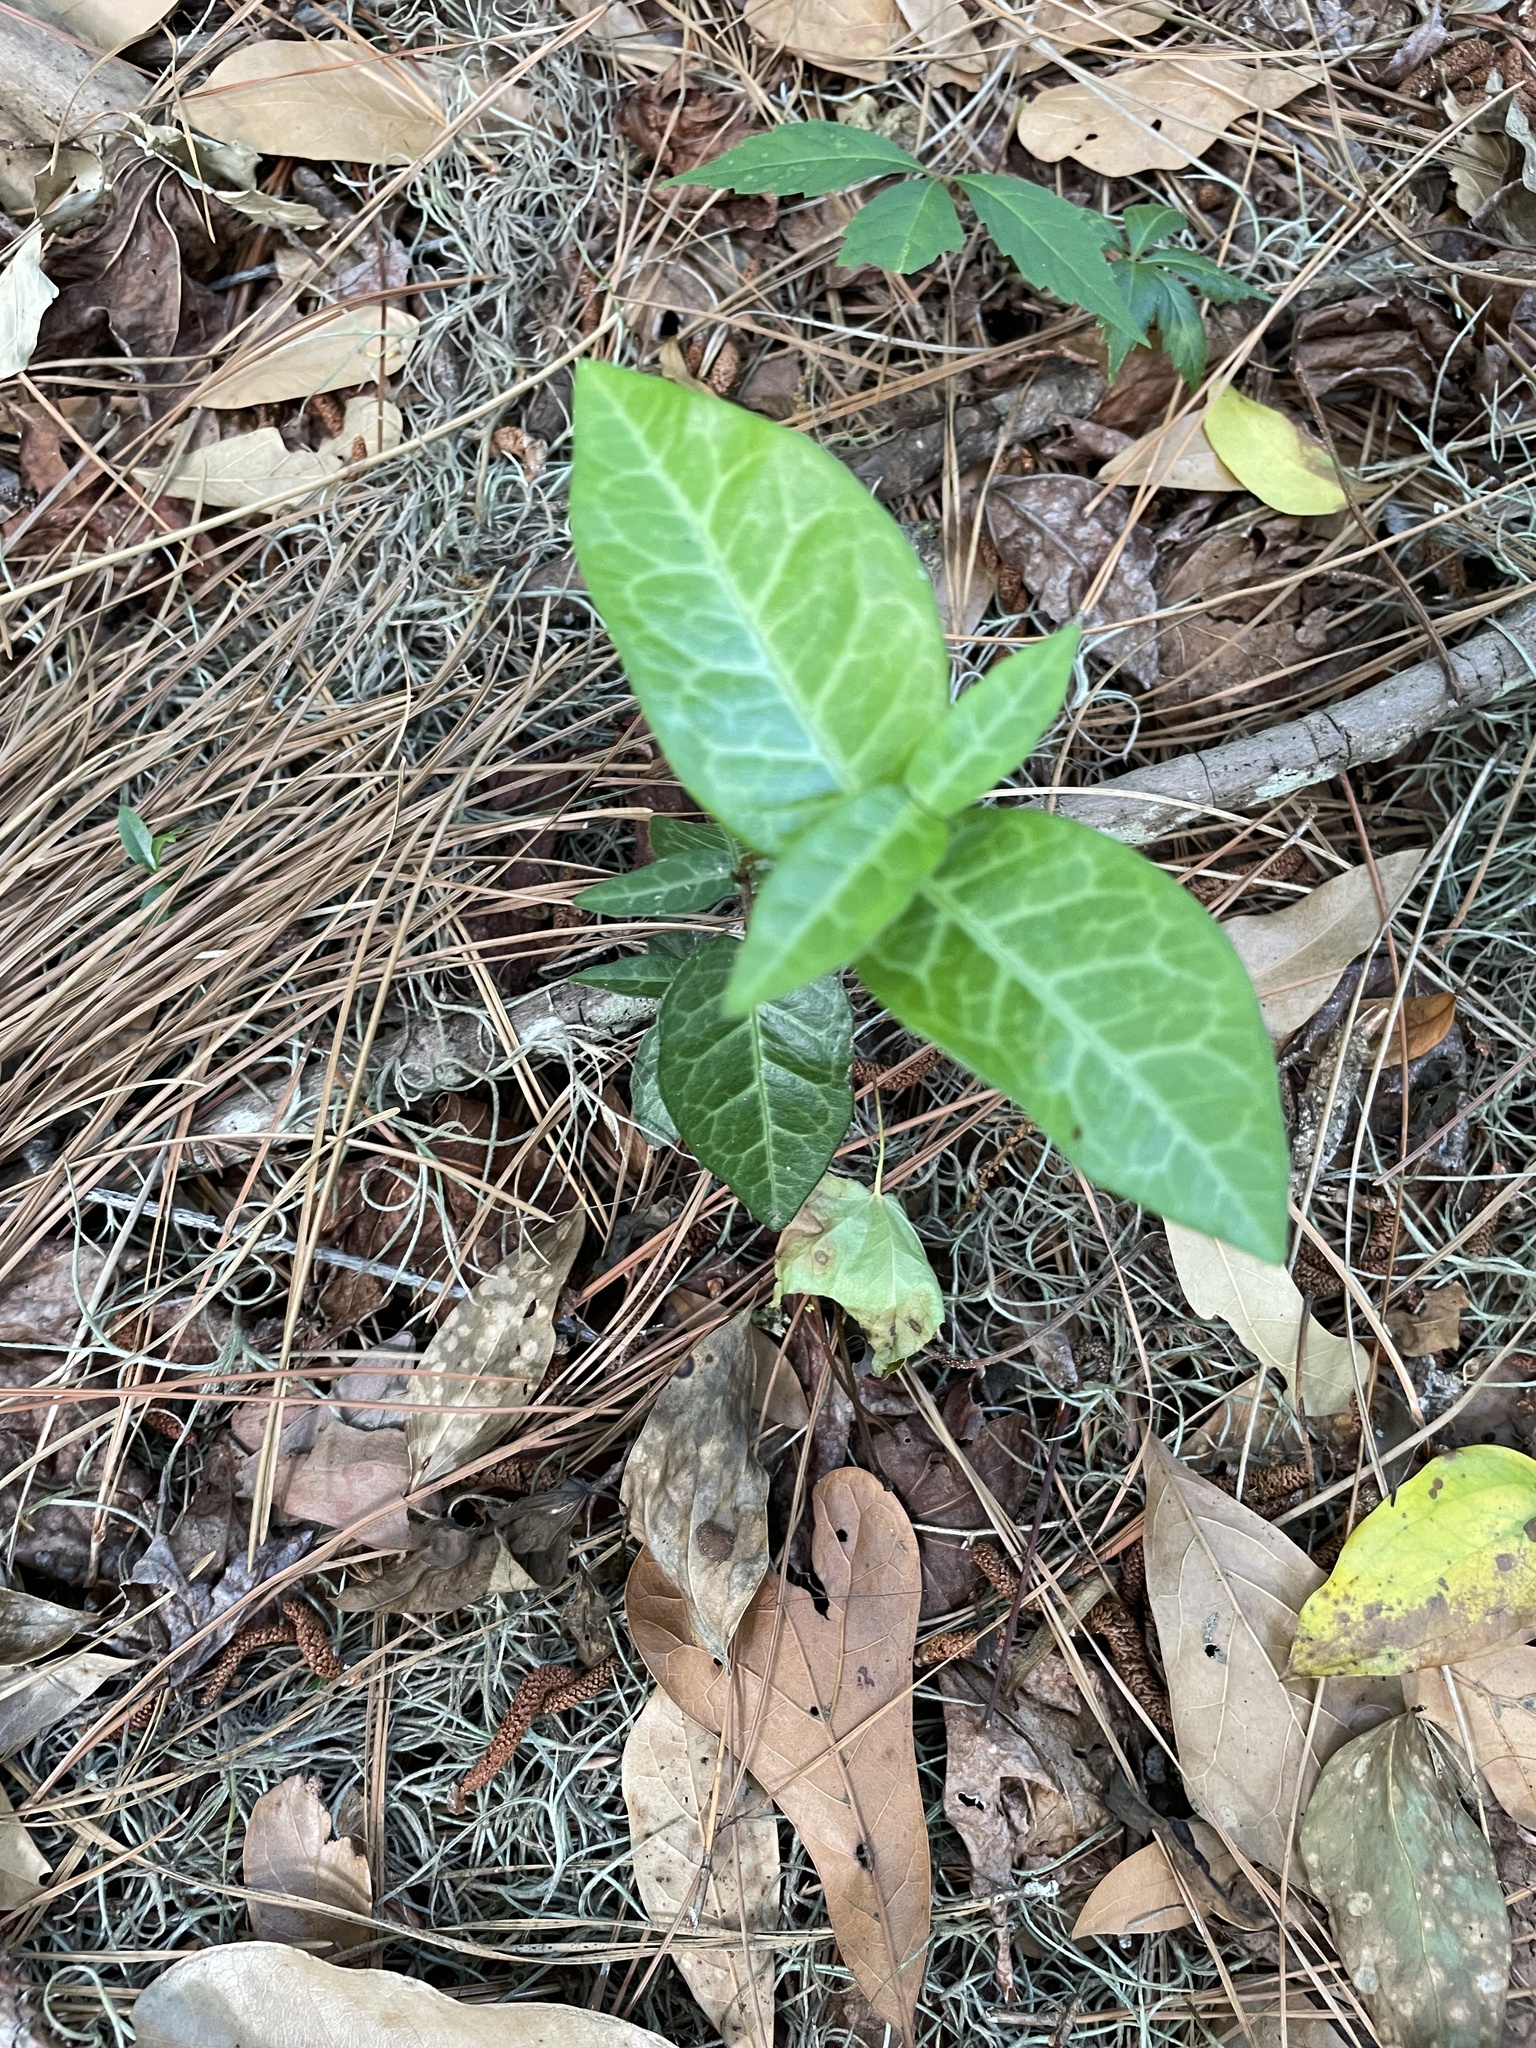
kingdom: Plantae
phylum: Tracheophyta
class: Magnoliopsida
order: Gentianales
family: Apocynaceae
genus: Trachelospermum
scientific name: Trachelospermum jasminoides
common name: Confederate jasmine
